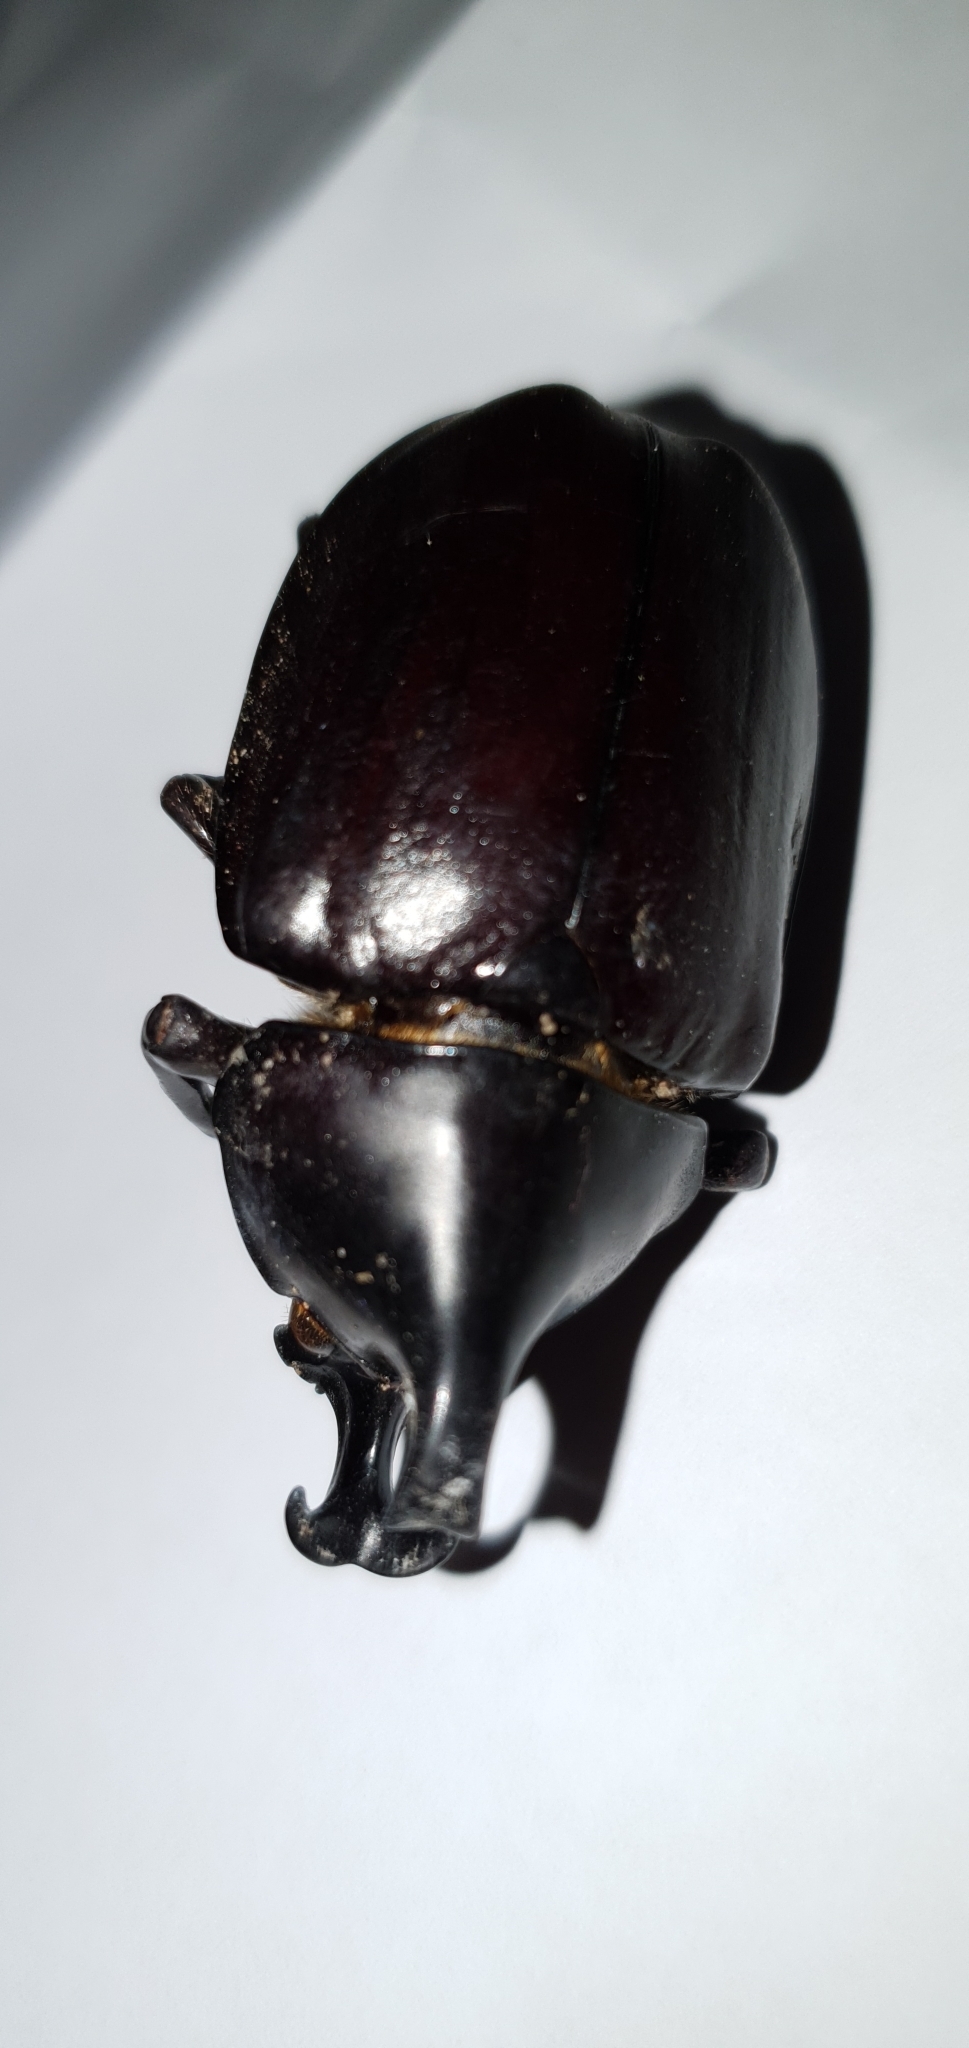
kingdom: Animalia
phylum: Arthropoda
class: Insecta
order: Coleoptera
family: Scarabaeidae
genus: Xylotrupes
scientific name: Xylotrupes australicus
